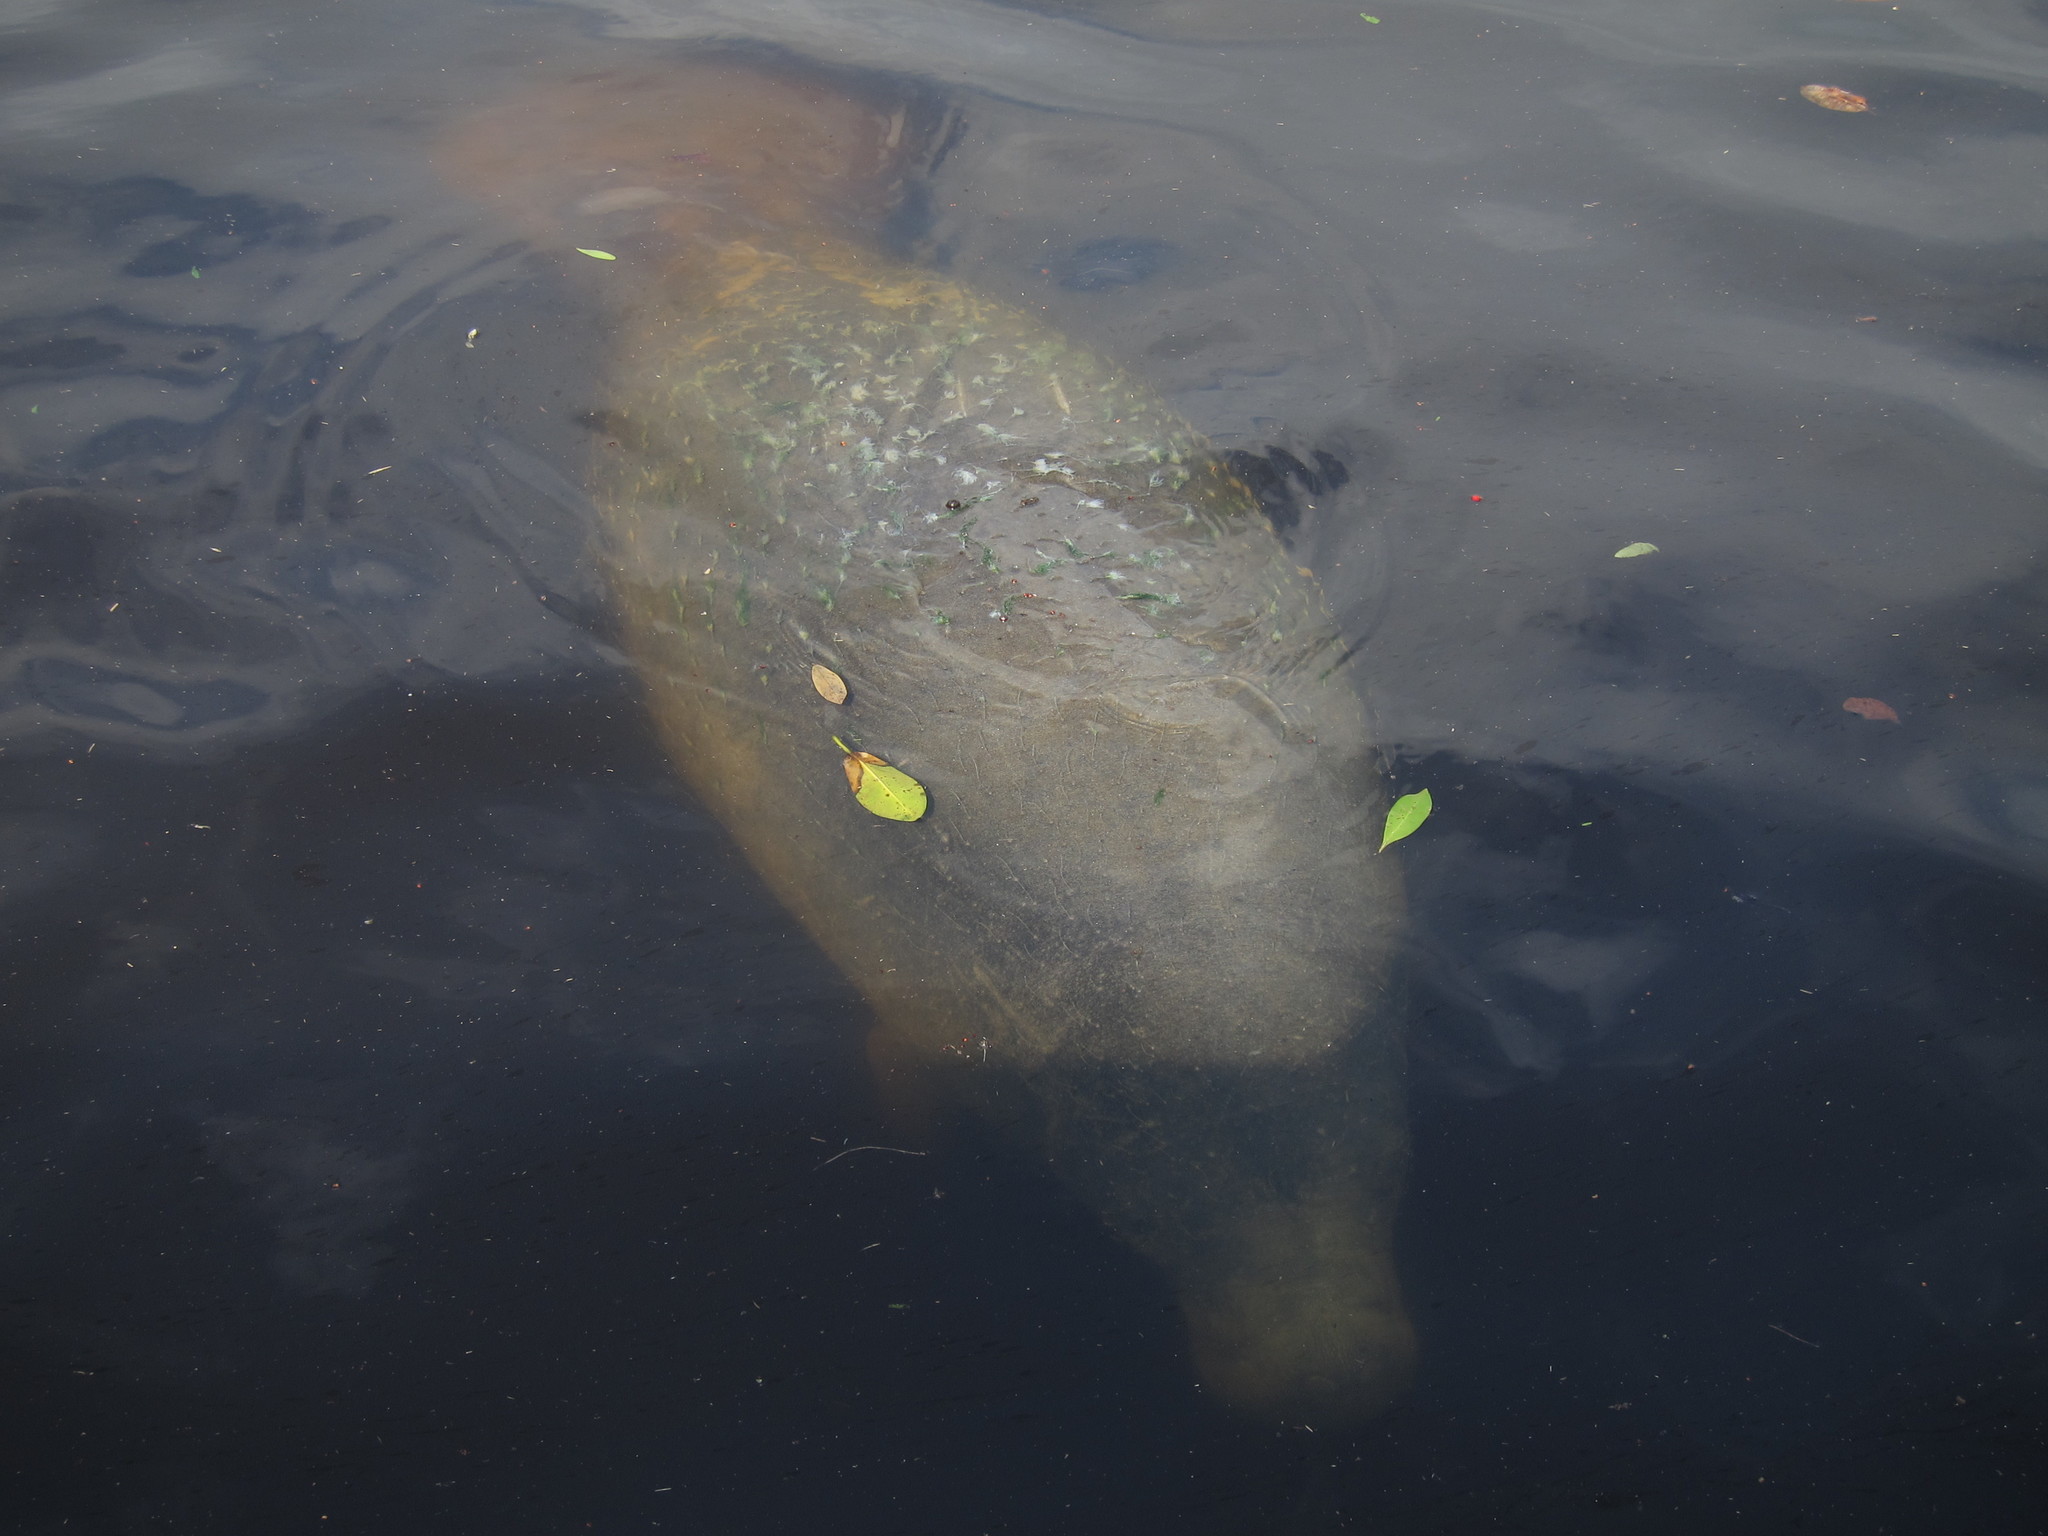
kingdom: Animalia
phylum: Chordata
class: Mammalia
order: Sirenia
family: Trichechidae
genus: Trichechus
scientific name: Trichechus manatus
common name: West indian manatee
